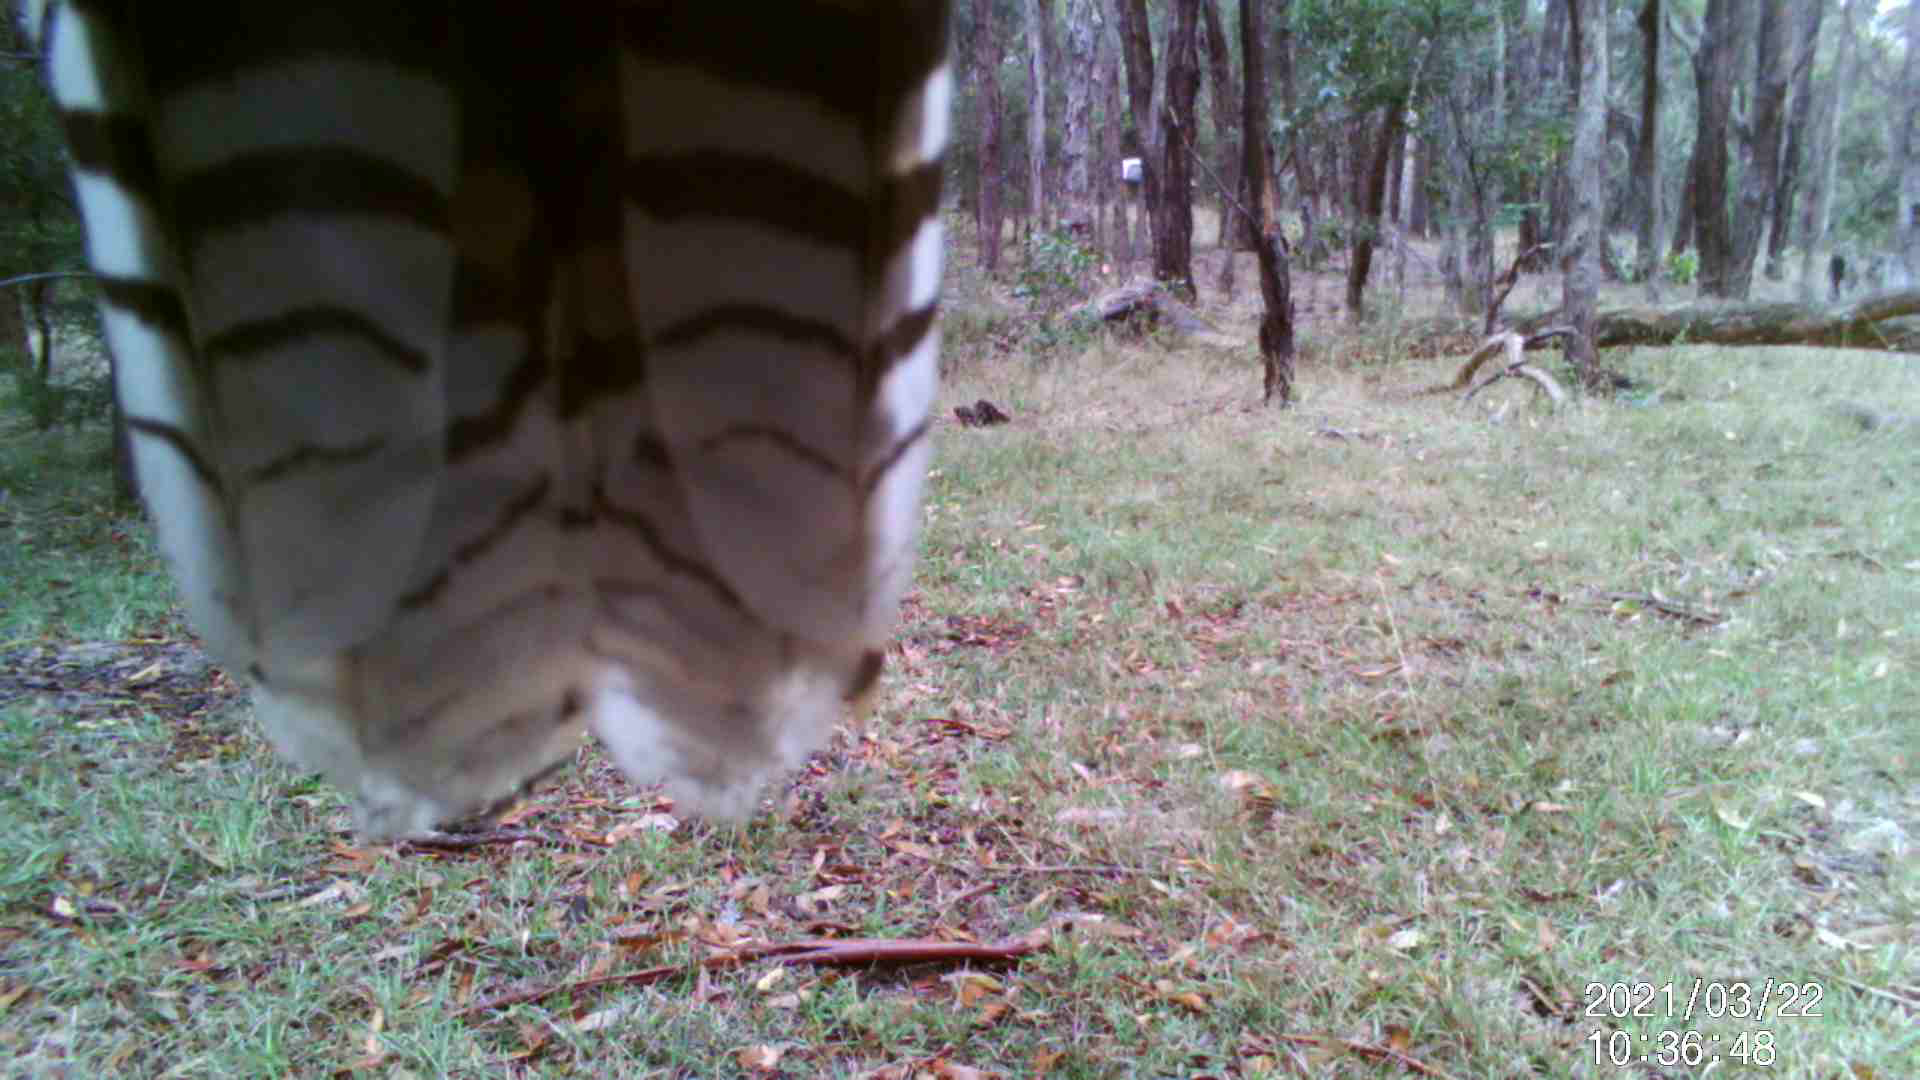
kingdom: Animalia
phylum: Chordata
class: Aves
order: Coraciiformes
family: Alcedinidae
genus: Dacelo
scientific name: Dacelo novaeguineae
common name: Laughing kookaburra
